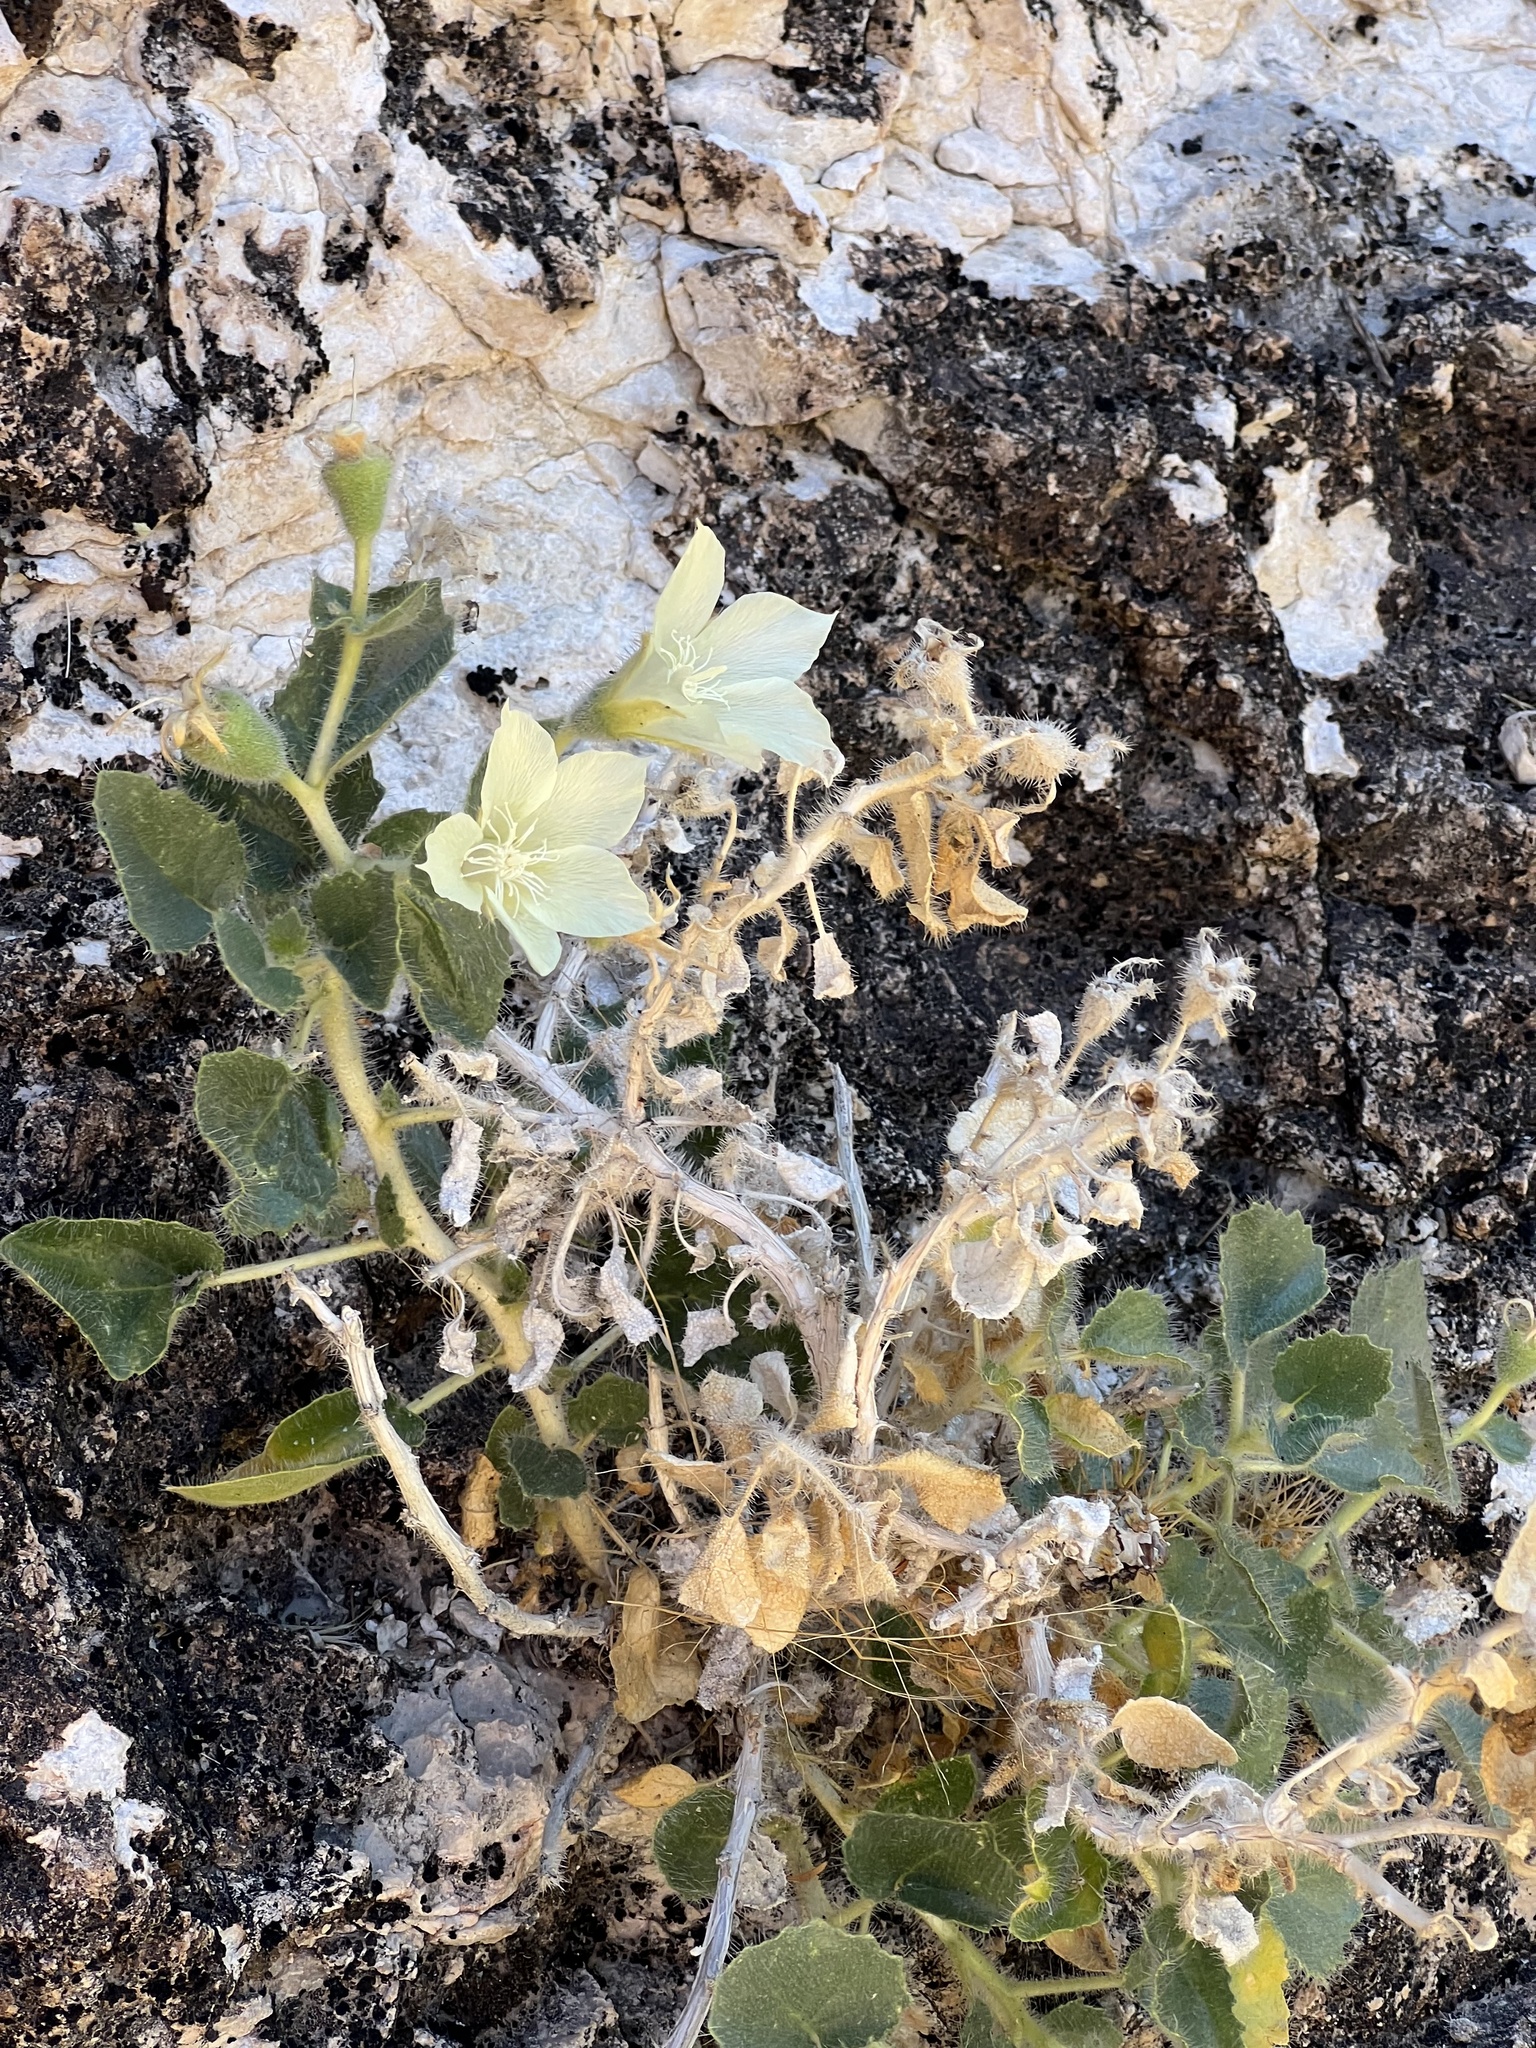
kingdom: Plantae
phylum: Tracheophyta
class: Magnoliopsida
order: Cornales
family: Loasaceae
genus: Eucnide
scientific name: Eucnide urens
